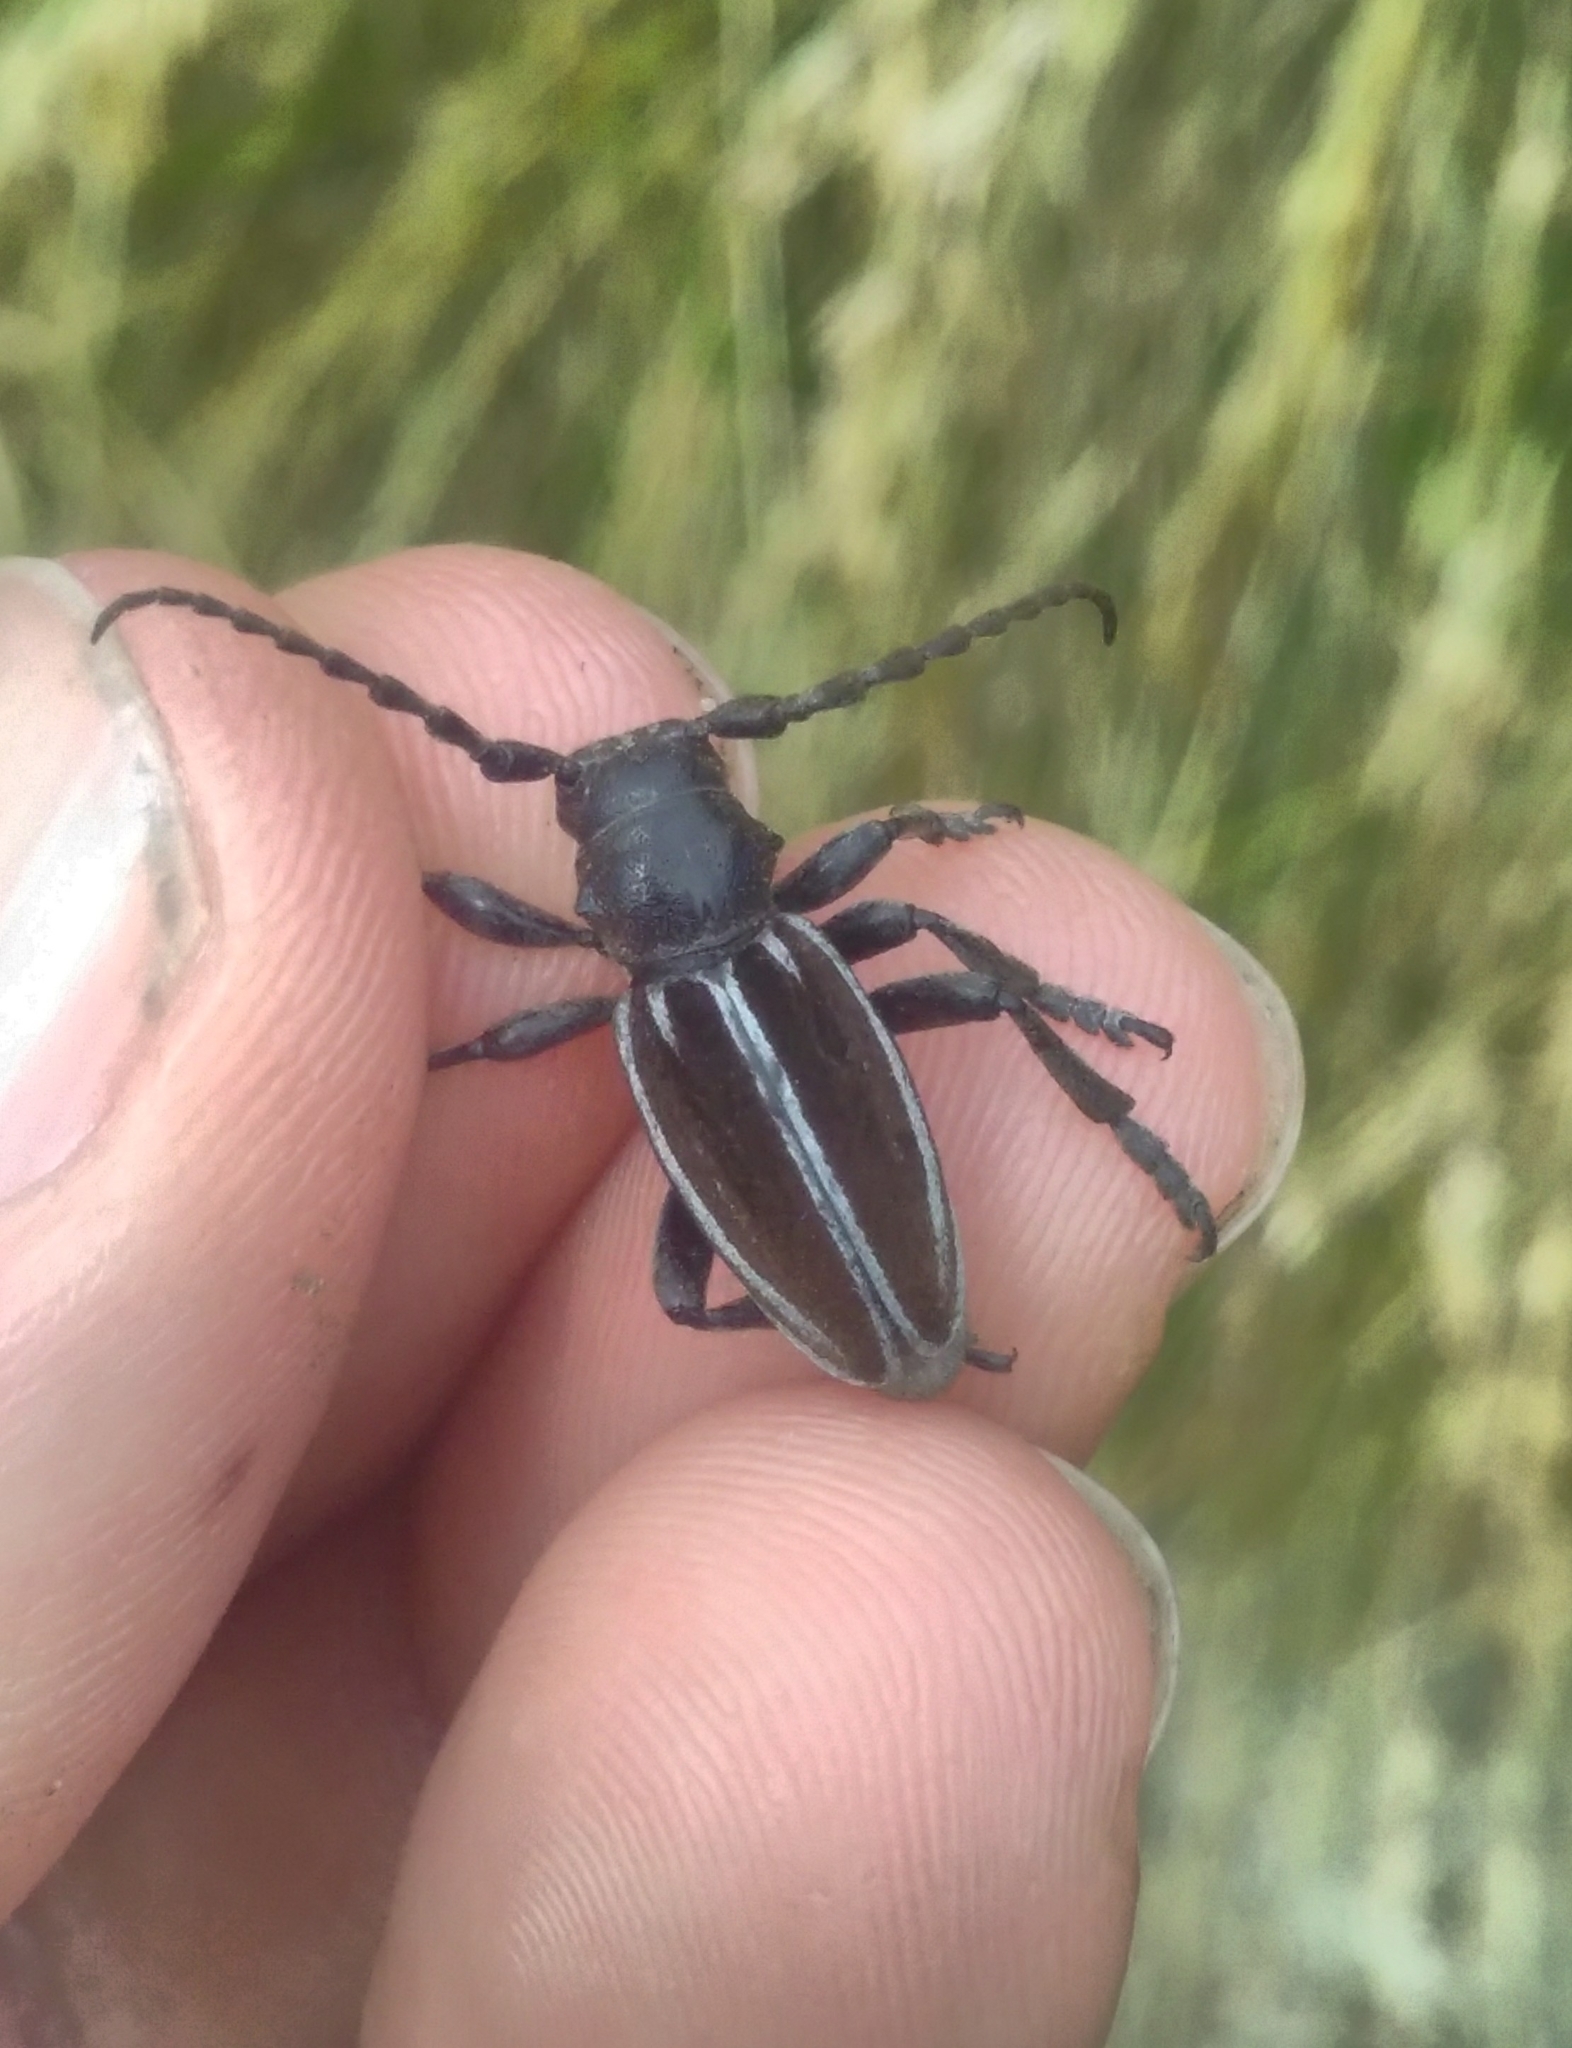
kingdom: Animalia
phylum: Arthropoda
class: Insecta
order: Coleoptera
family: Cerambycidae
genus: Iberodorcadion
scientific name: Iberodorcadion fuliginator
